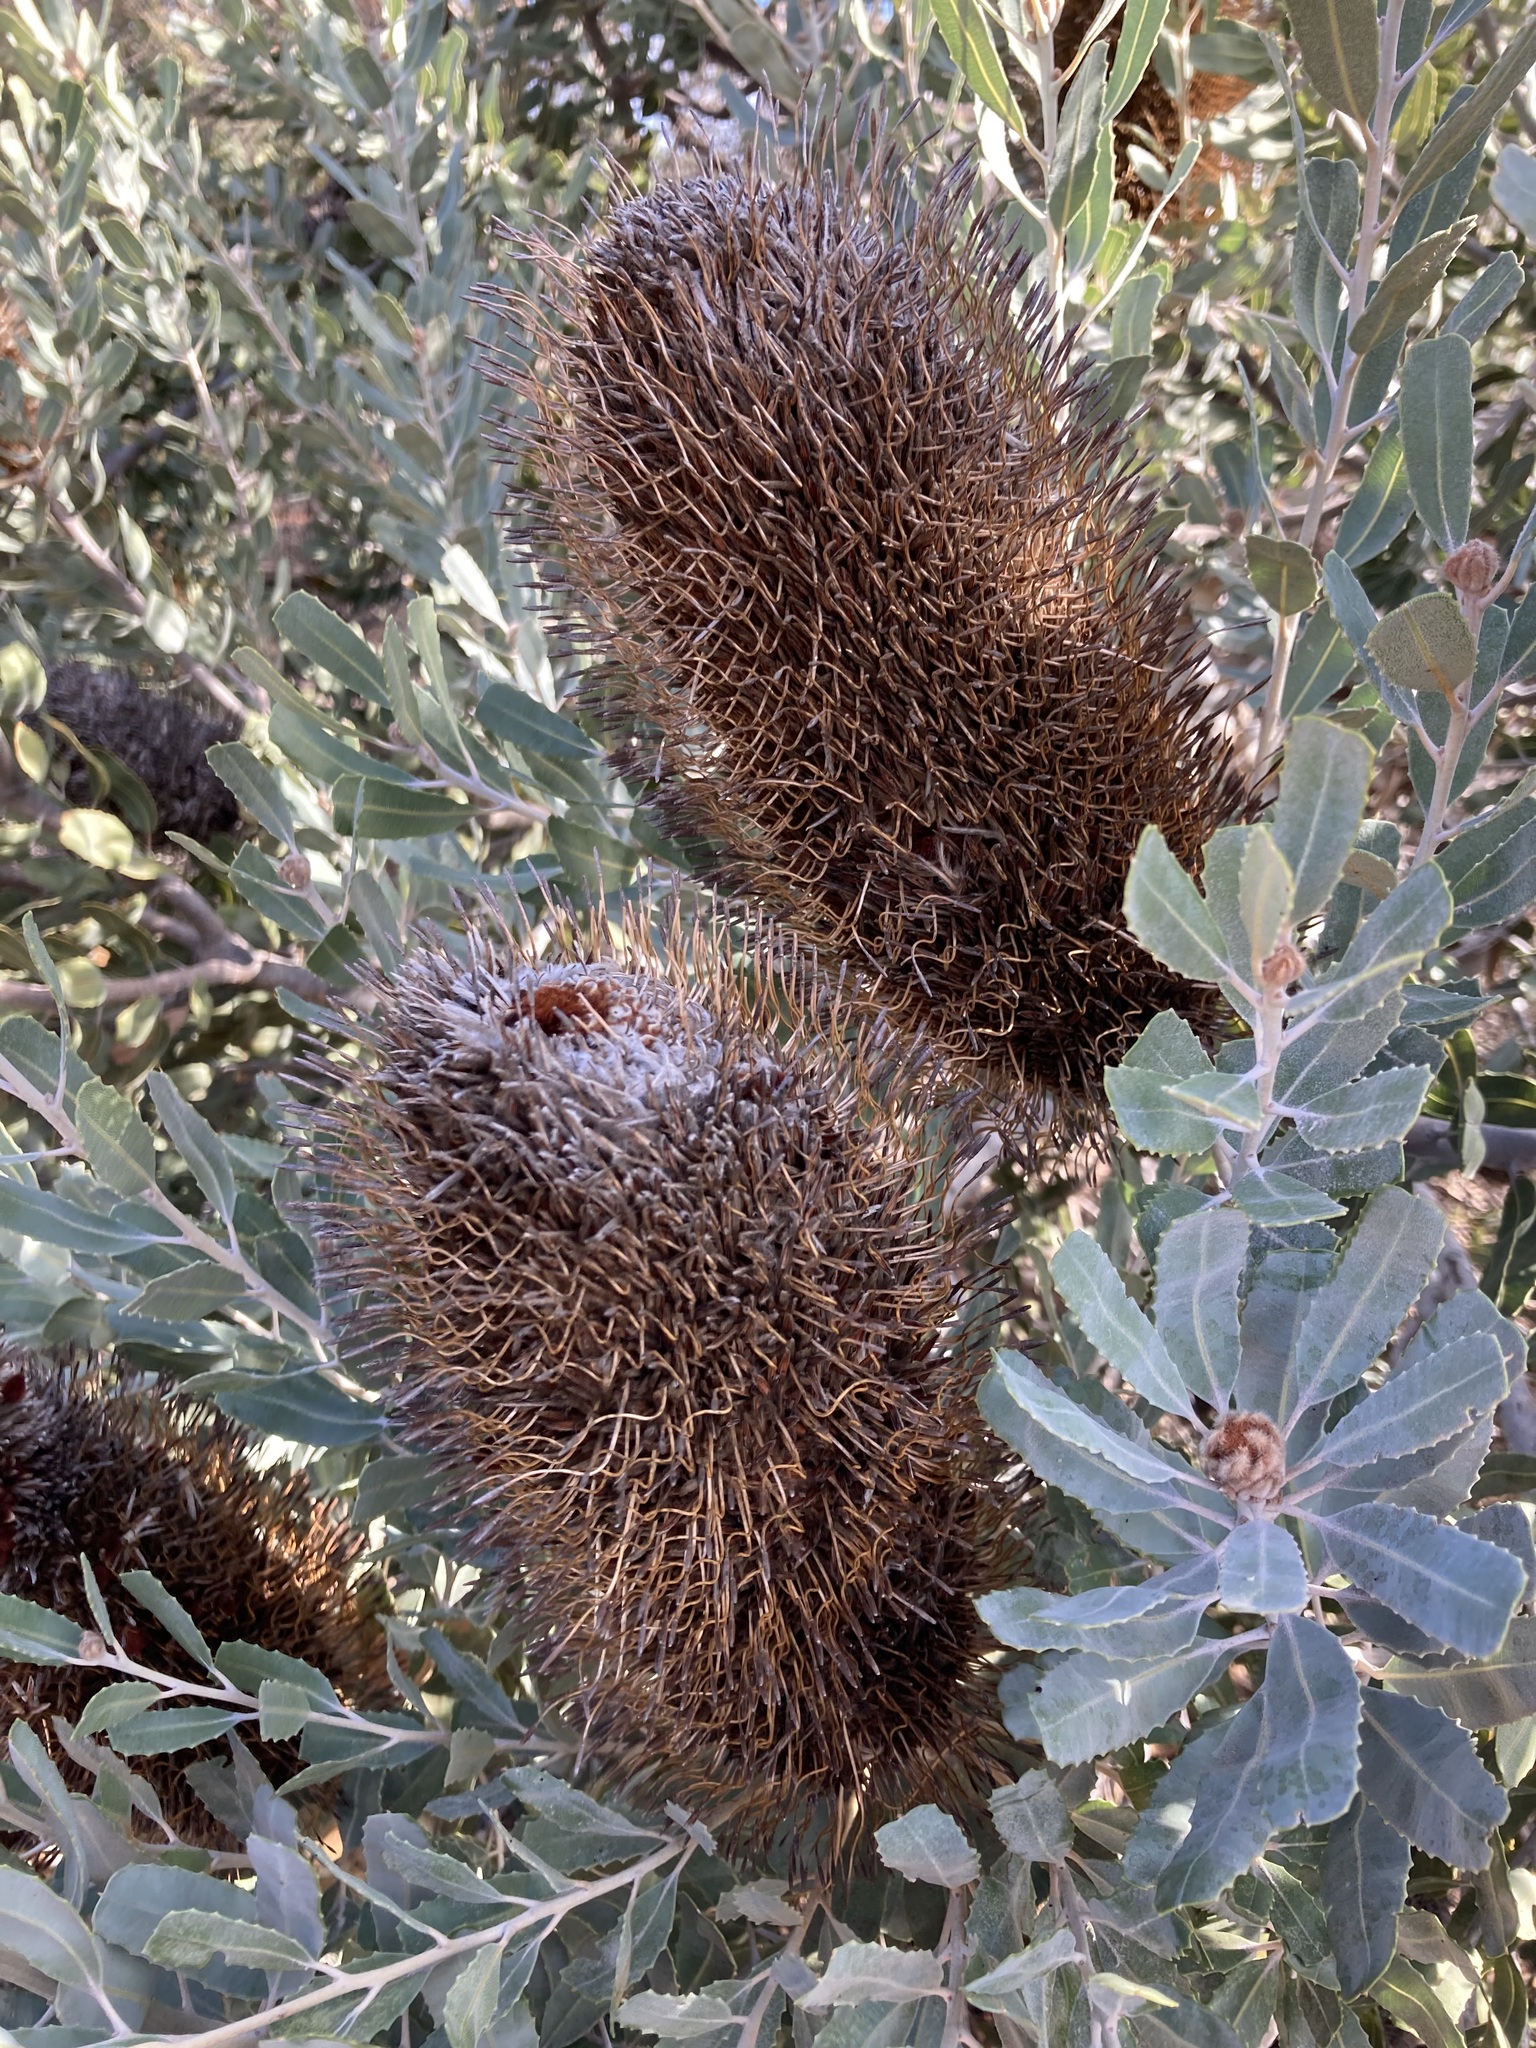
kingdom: Plantae
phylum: Tracheophyta
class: Magnoliopsida
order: Proteales
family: Proteaceae
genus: Banksia
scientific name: Banksia sceptrum
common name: Sceptre banksia
